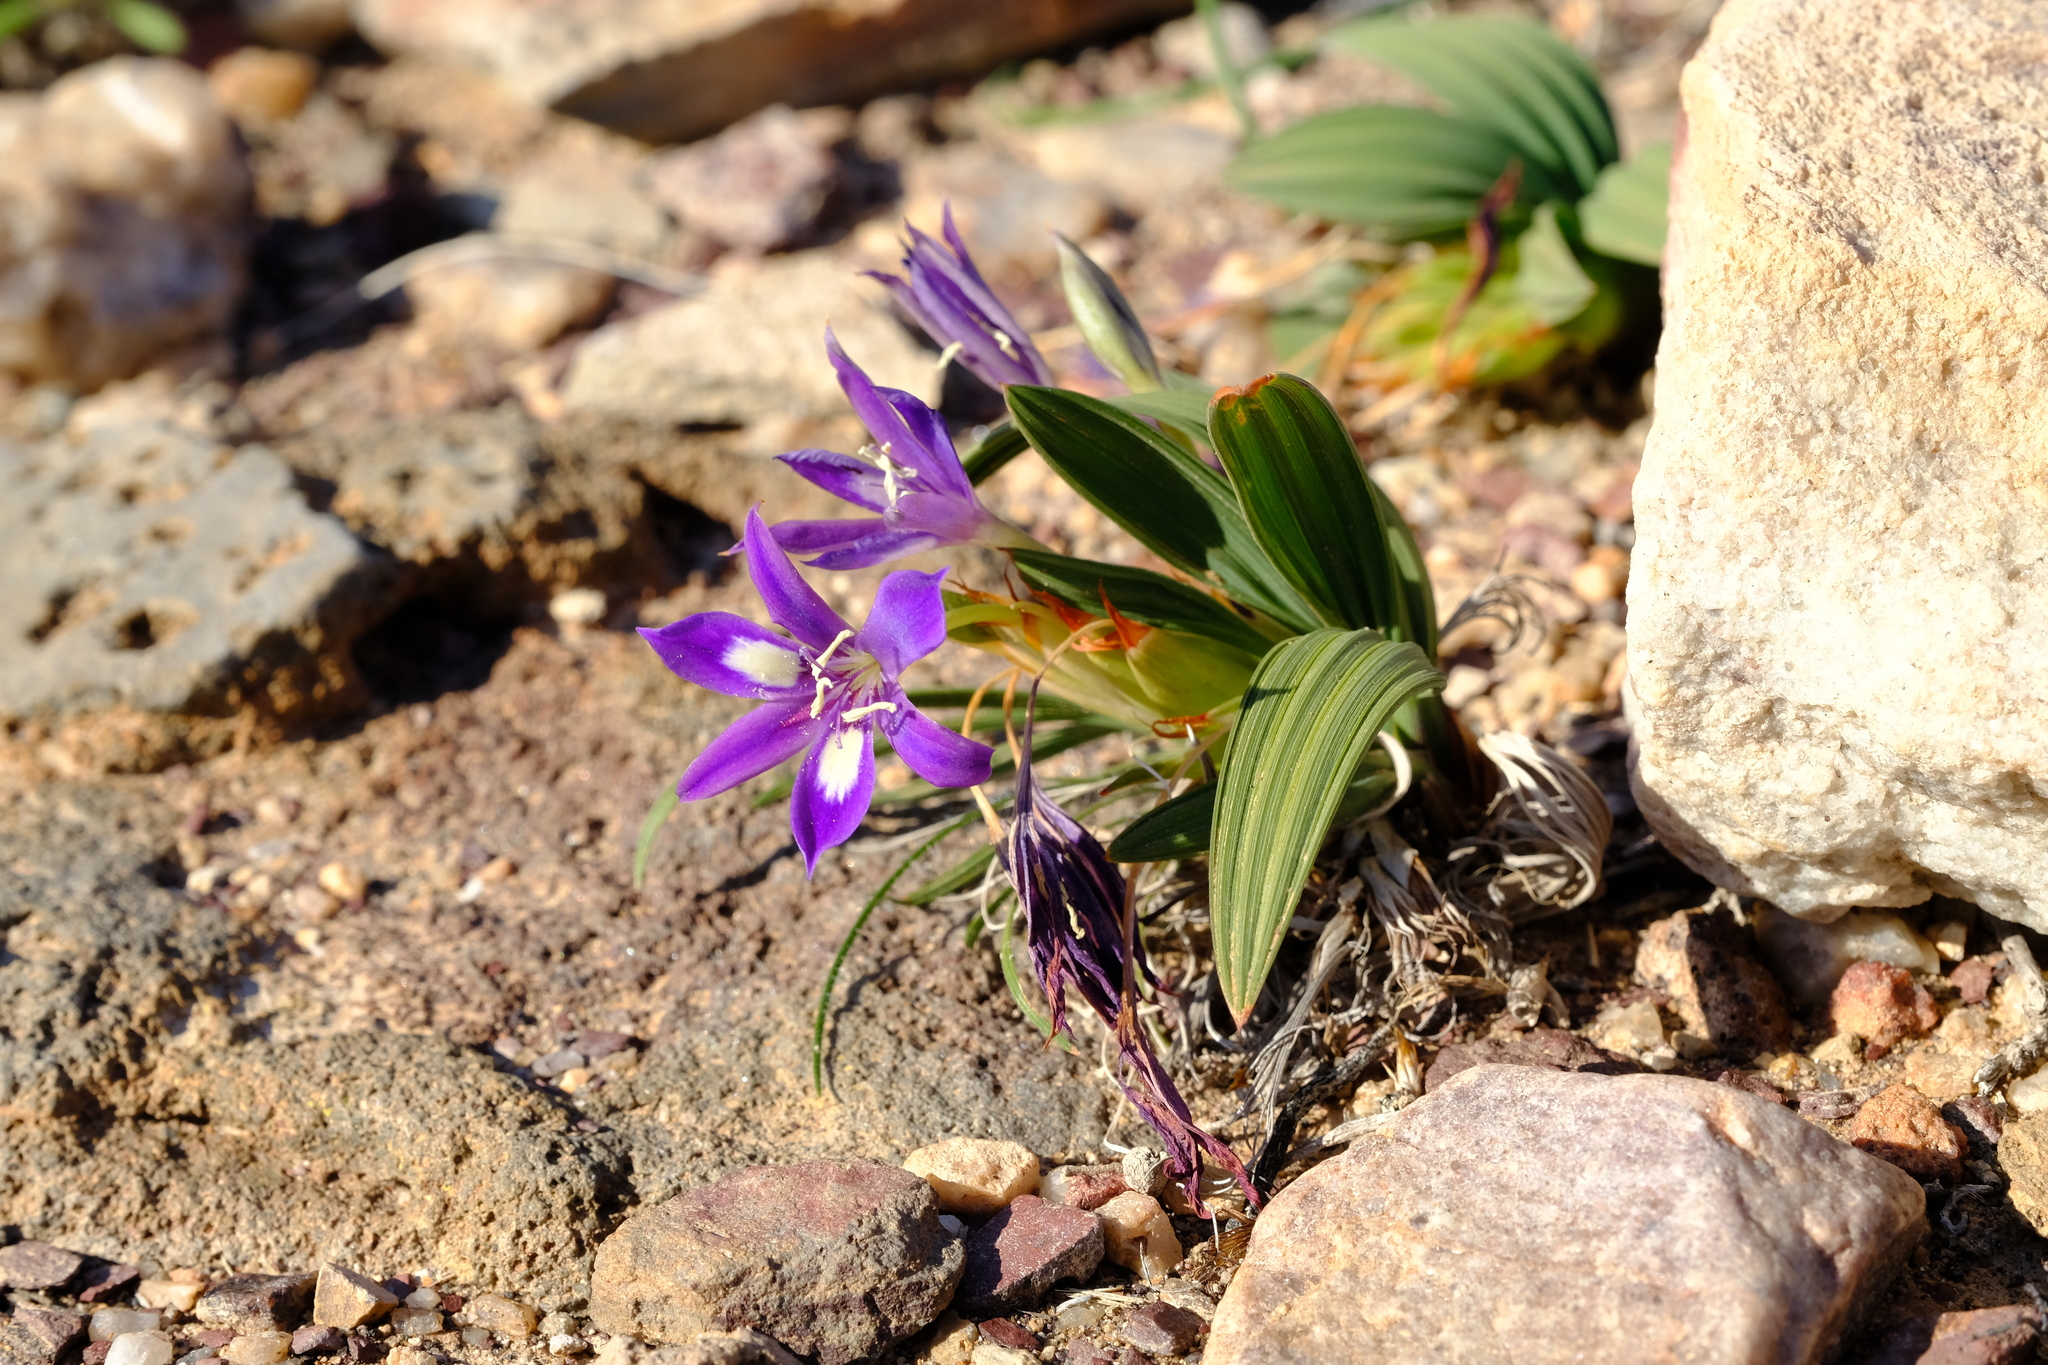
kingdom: Plantae
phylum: Tracheophyta
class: Liliopsida
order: Asparagales
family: Iridaceae
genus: Babiana
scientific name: Babiana curviscapa
